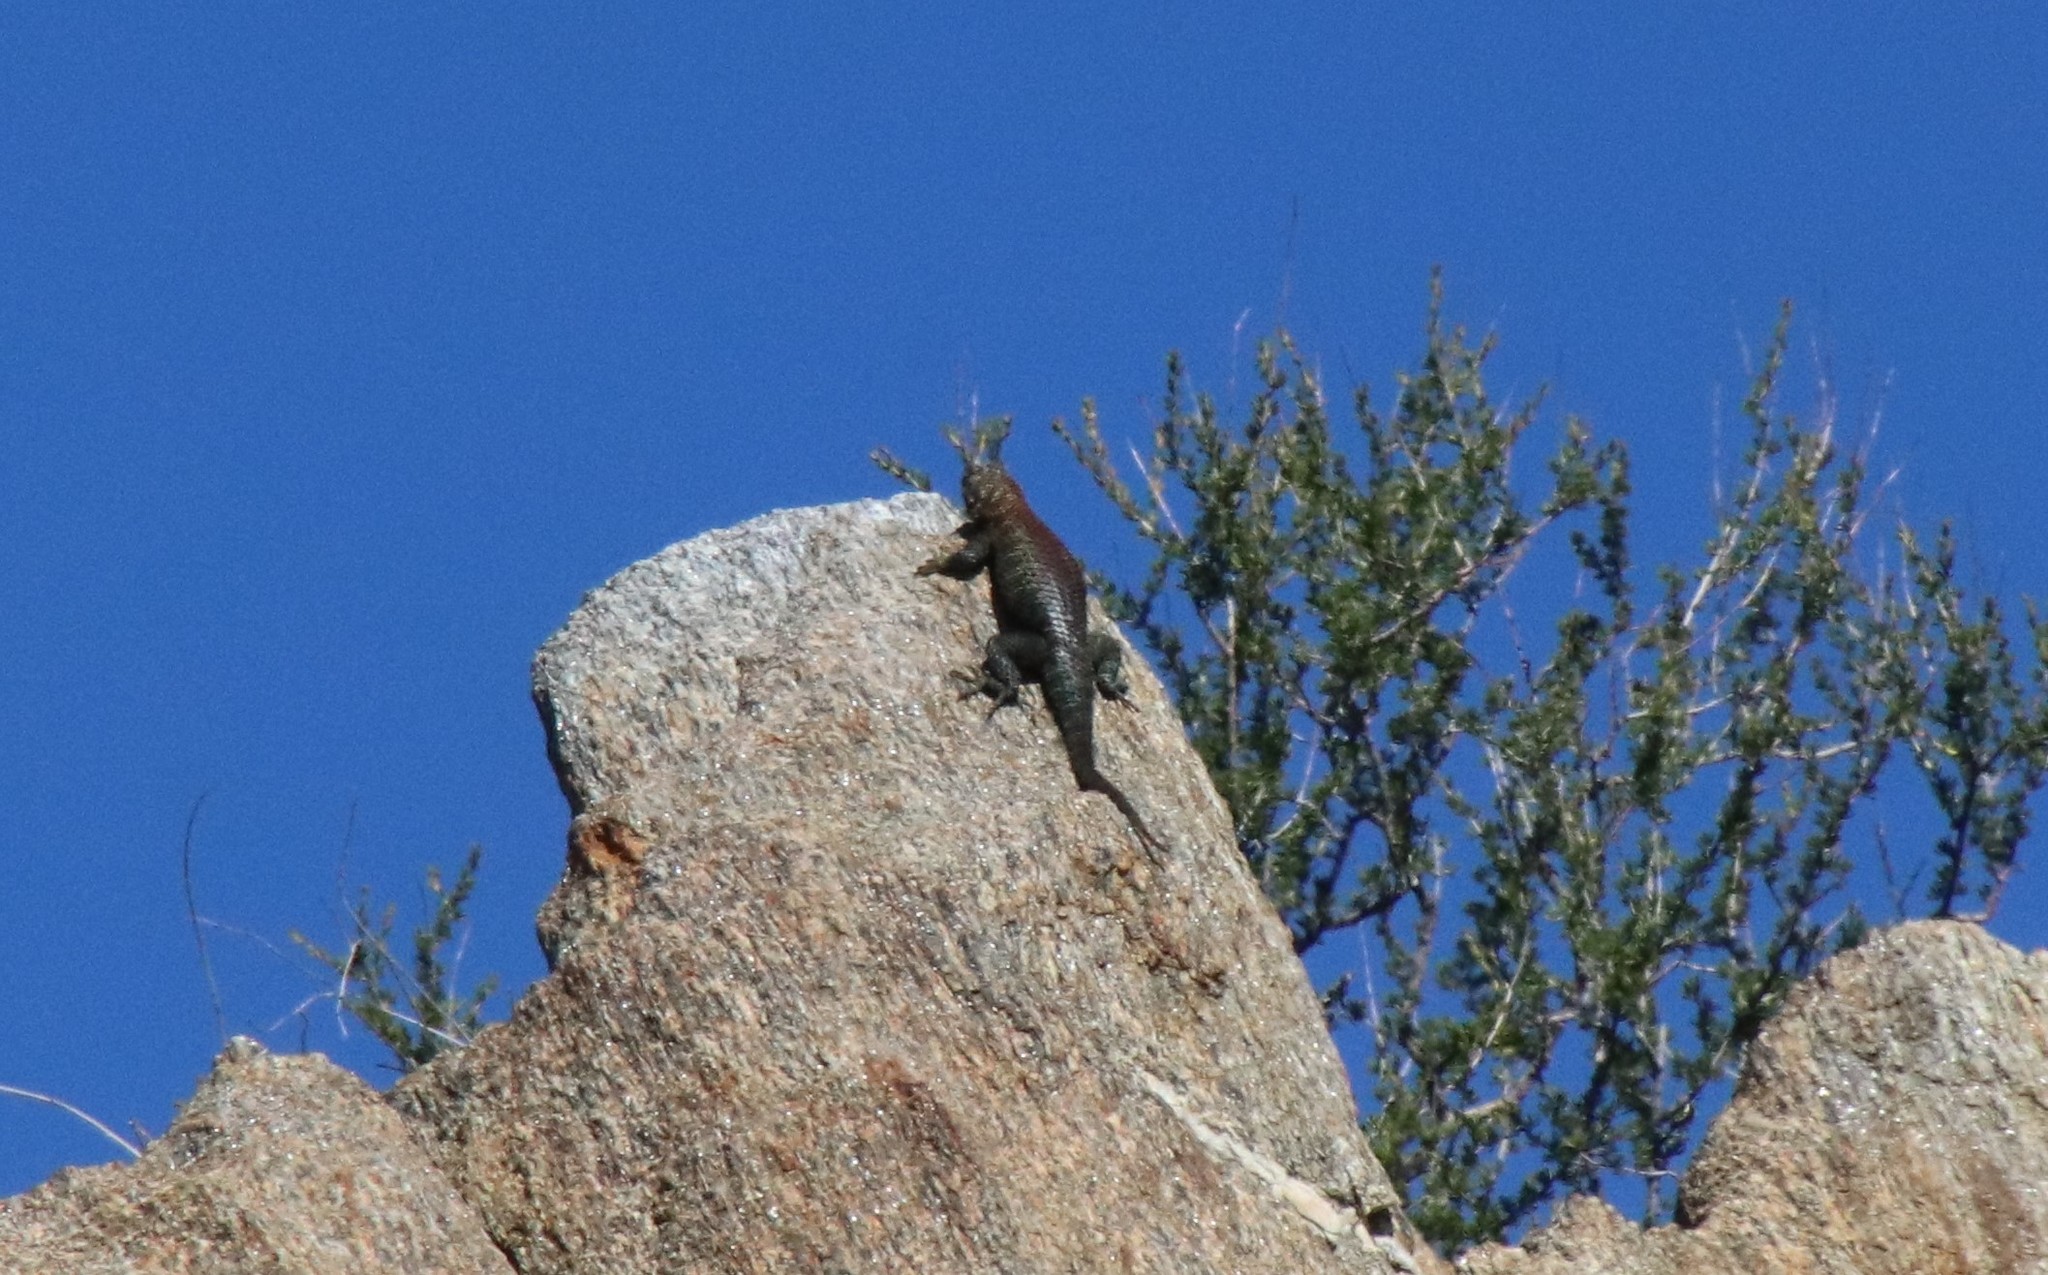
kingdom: Animalia
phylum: Chordata
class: Squamata
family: Phrynosomatidae
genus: Sceloporus
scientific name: Sceloporus orcutti
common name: Granite spiny lizard
